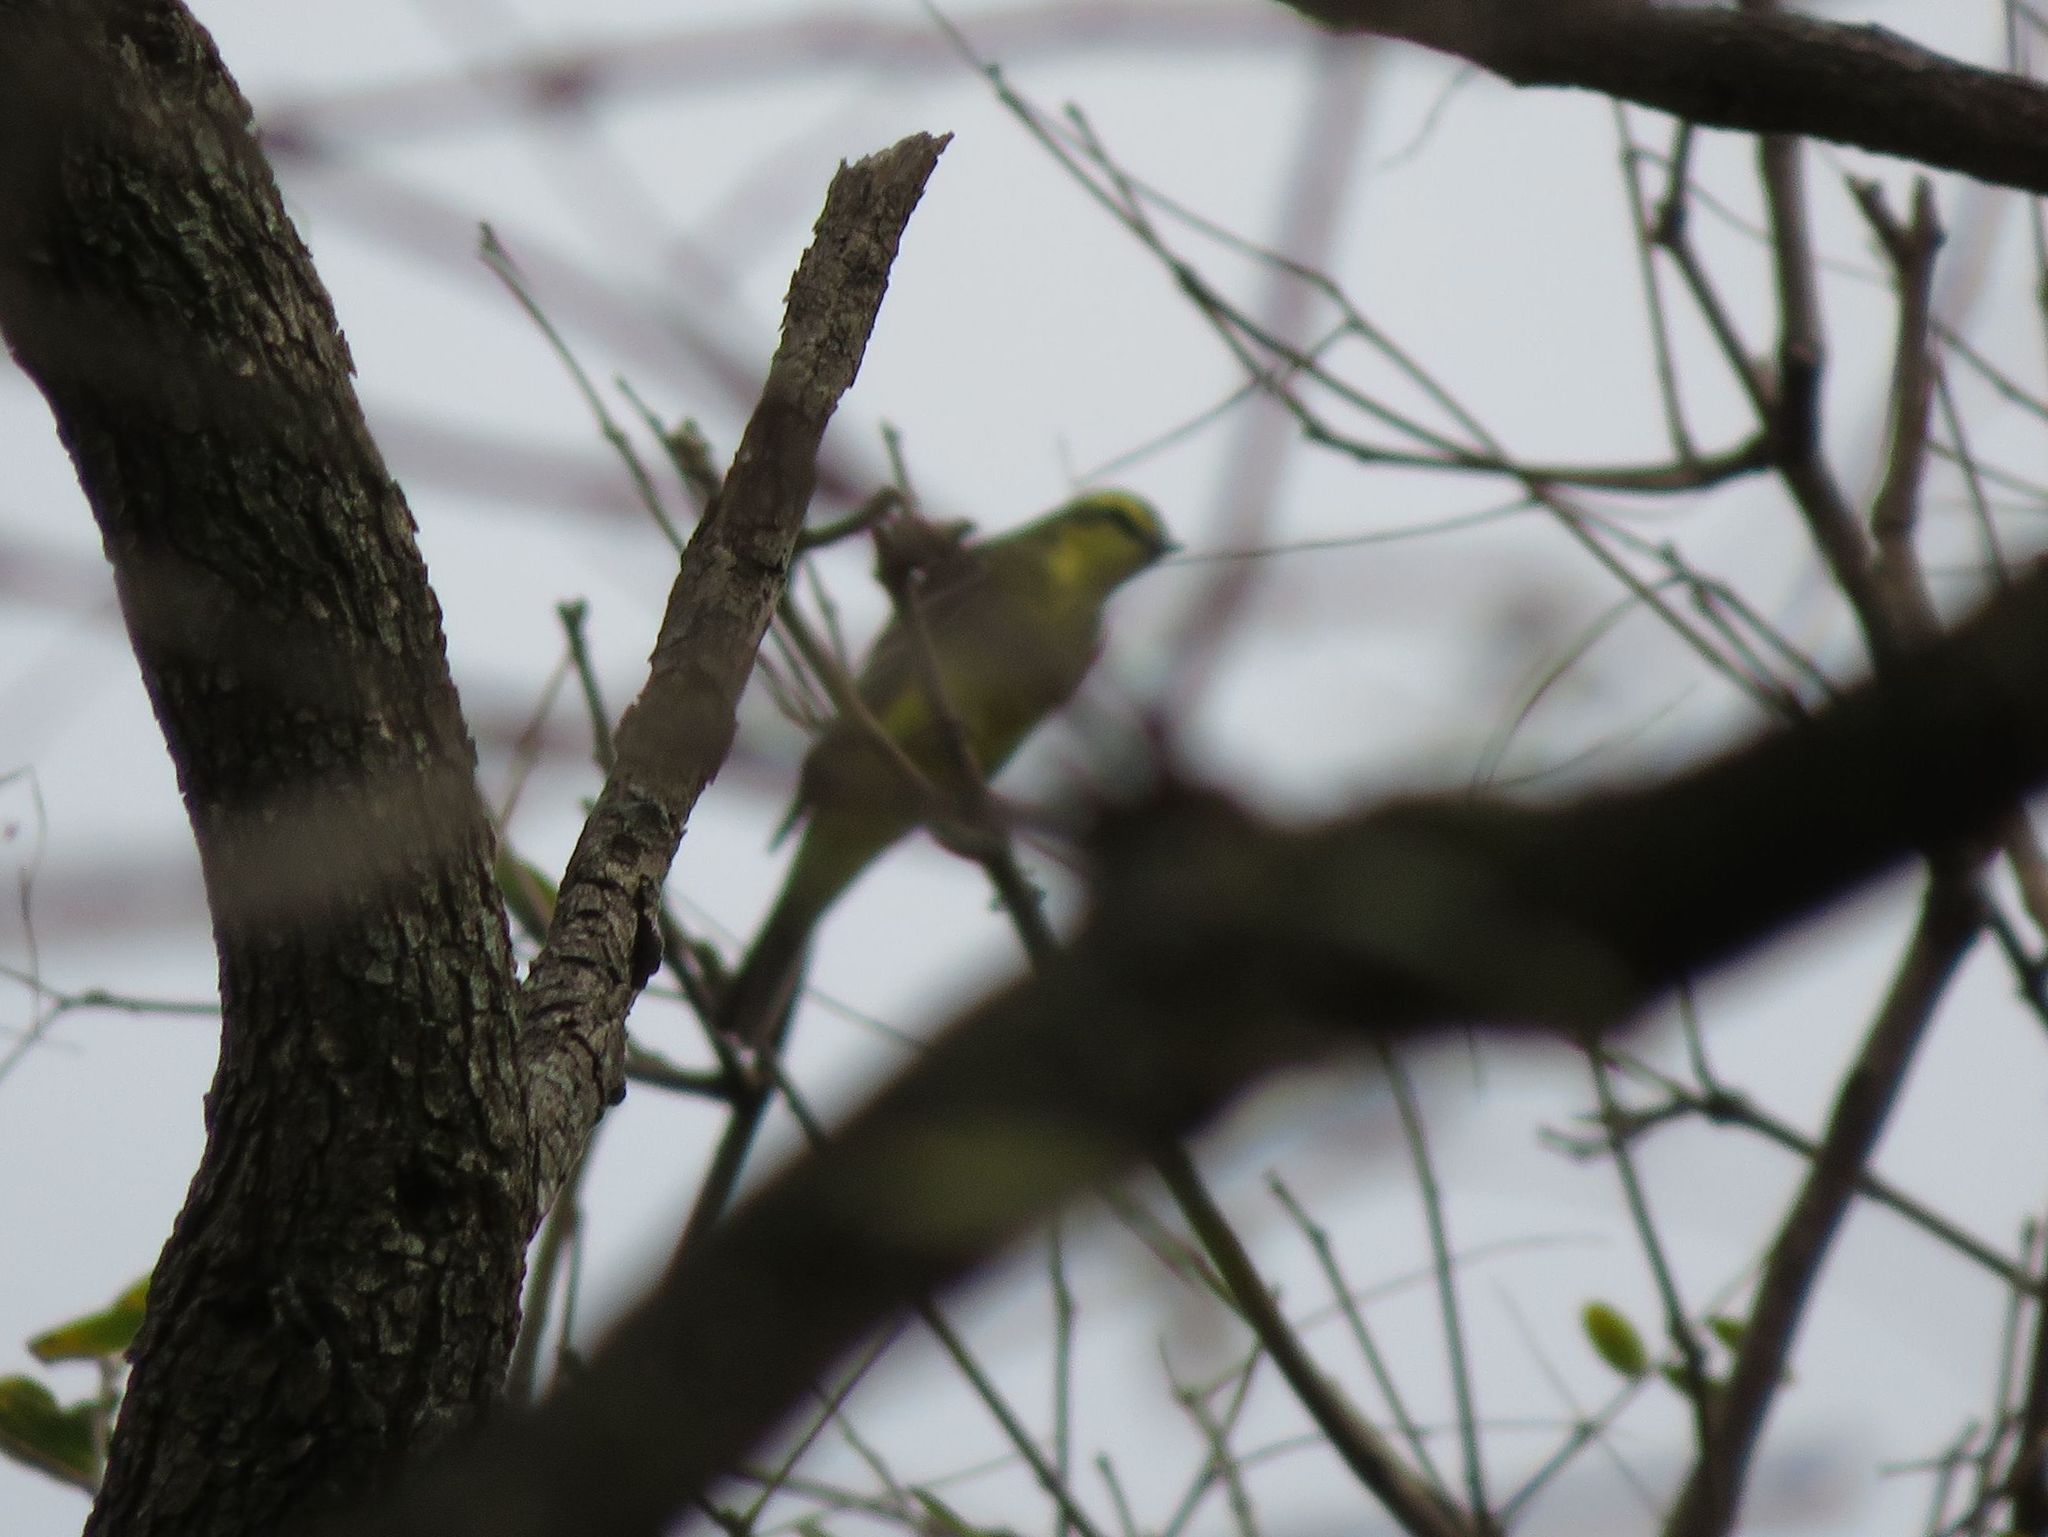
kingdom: Animalia
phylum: Chordata
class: Aves
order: Passeriformes
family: Tyrannidae
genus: Satrapa
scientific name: Satrapa icterophrys
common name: Yellow-browed tyrant
